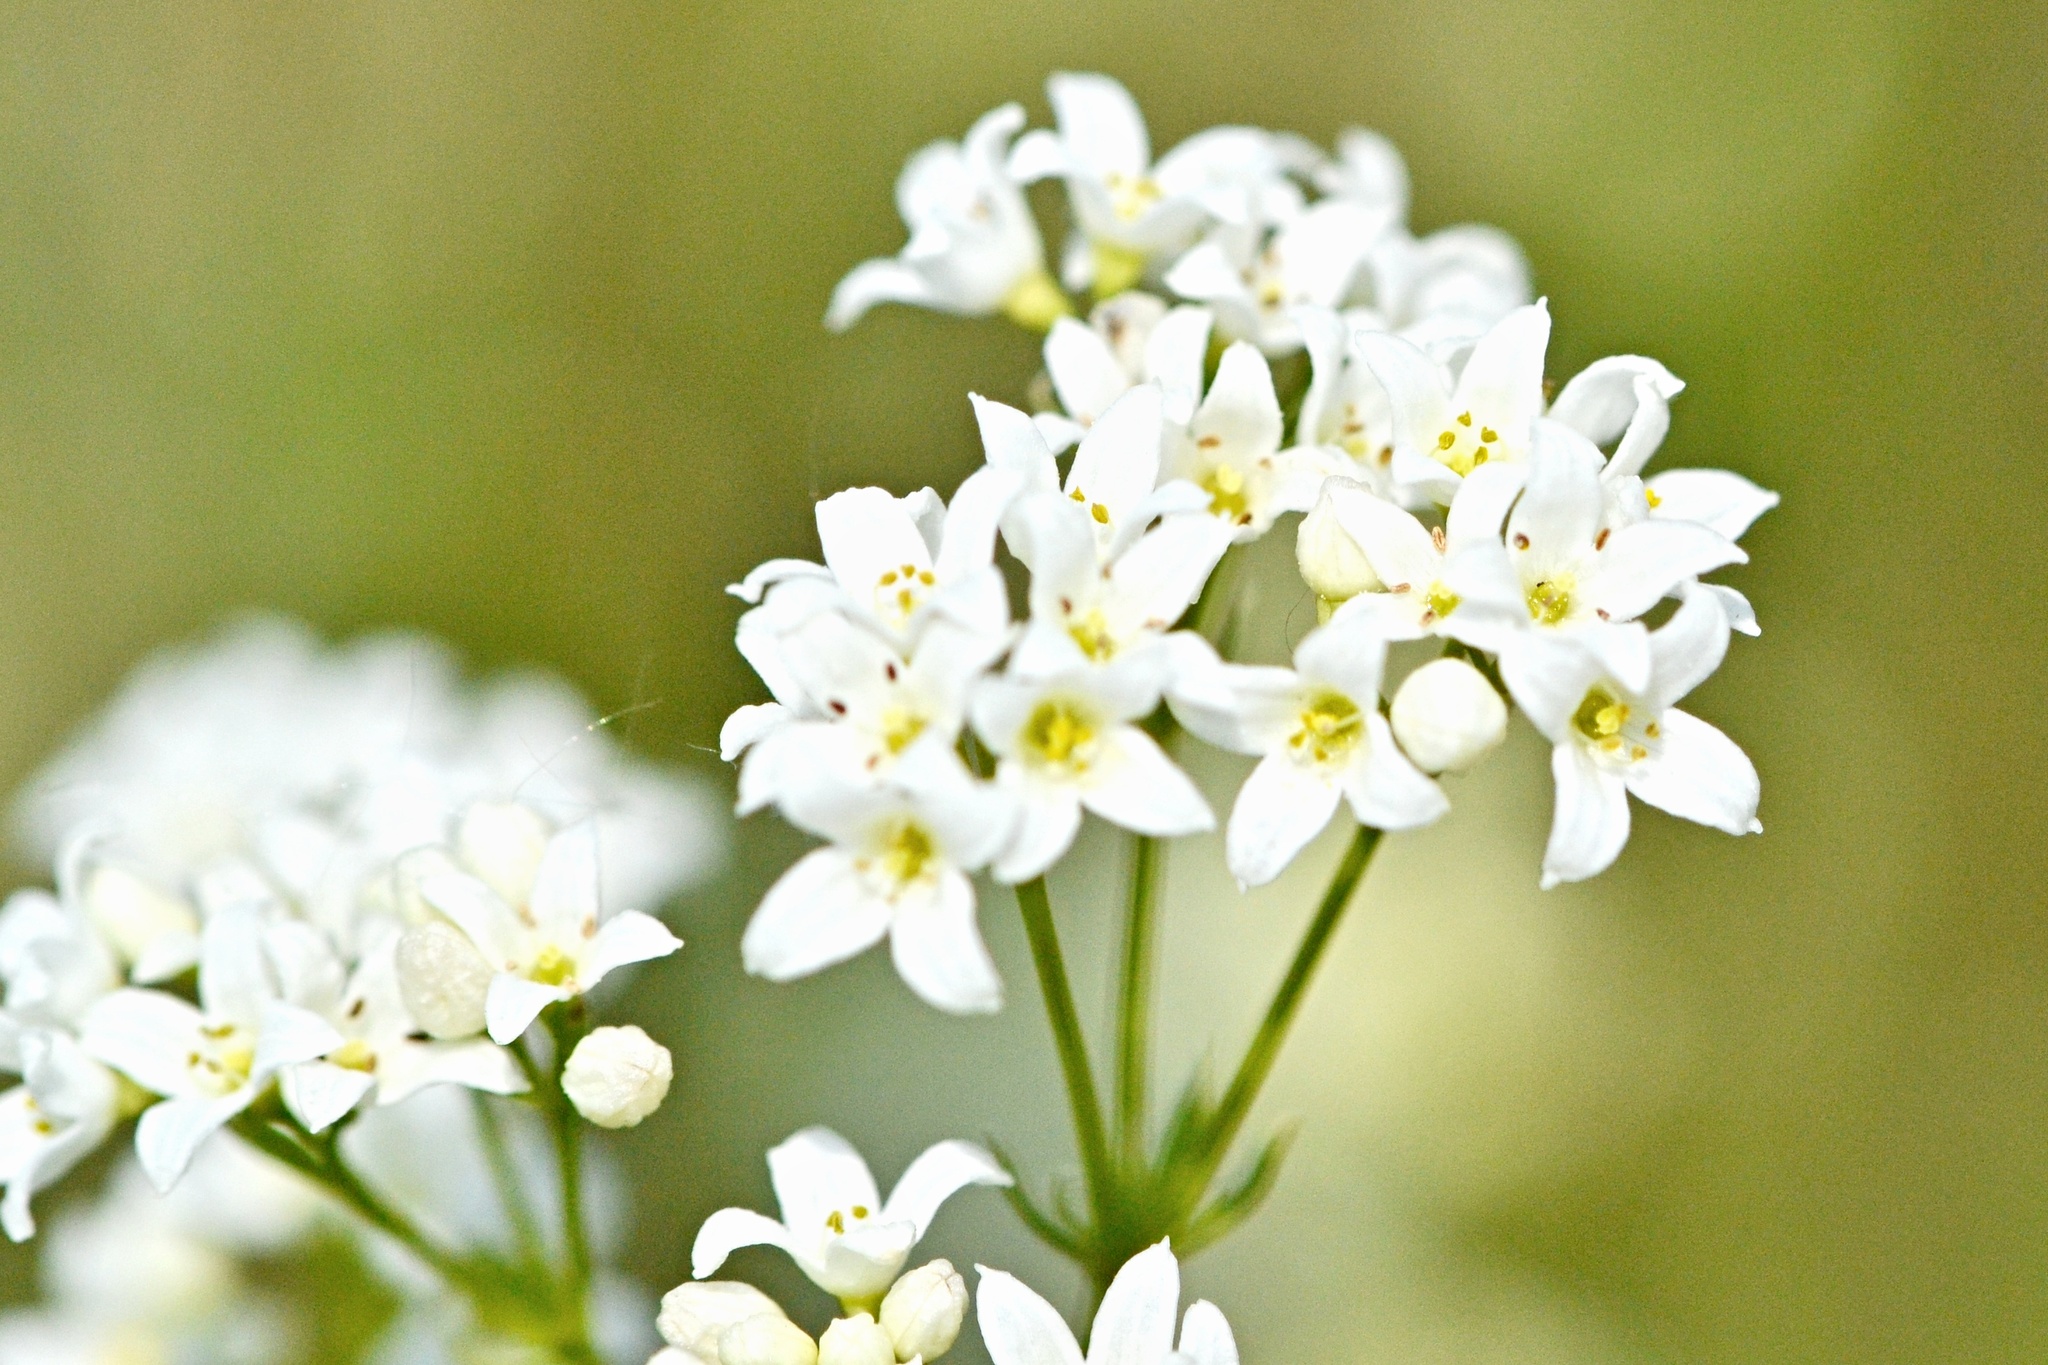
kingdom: Plantae
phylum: Tracheophyta
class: Magnoliopsida
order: Gentianales
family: Rubiaceae
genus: Galium
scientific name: Galium glaucum
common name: Waxy bedstraw
